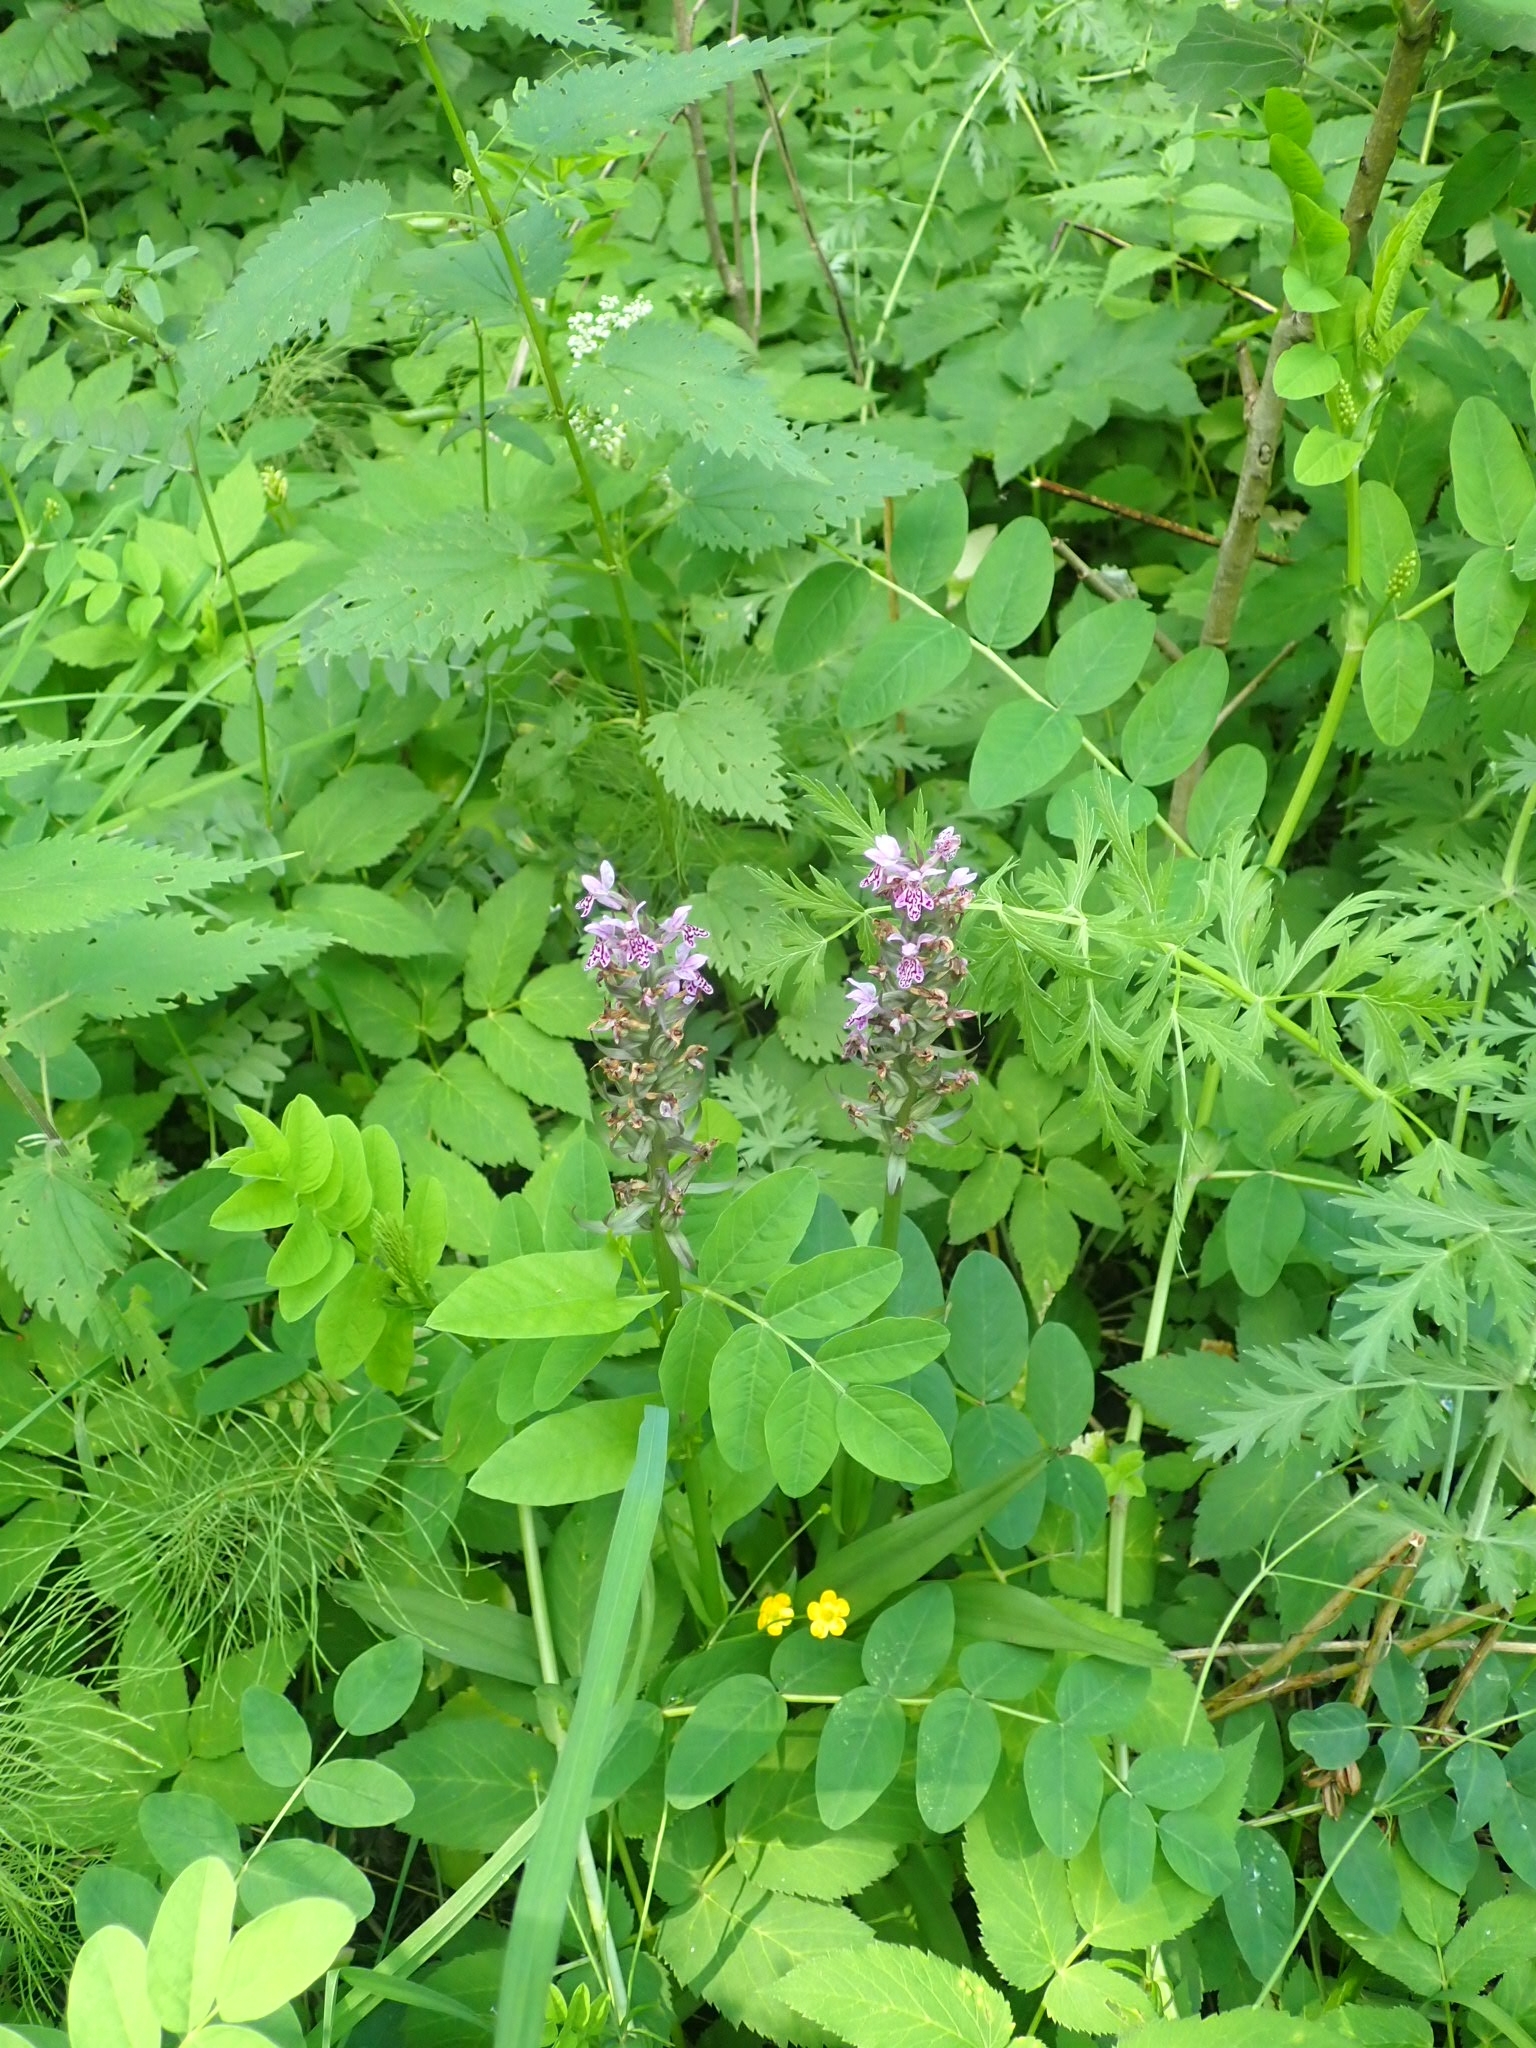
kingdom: Plantae
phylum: Tracheophyta
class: Liliopsida
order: Asparagales
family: Orchidaceae
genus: Dactylorhiza
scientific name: Dactylorhiza sibirica
